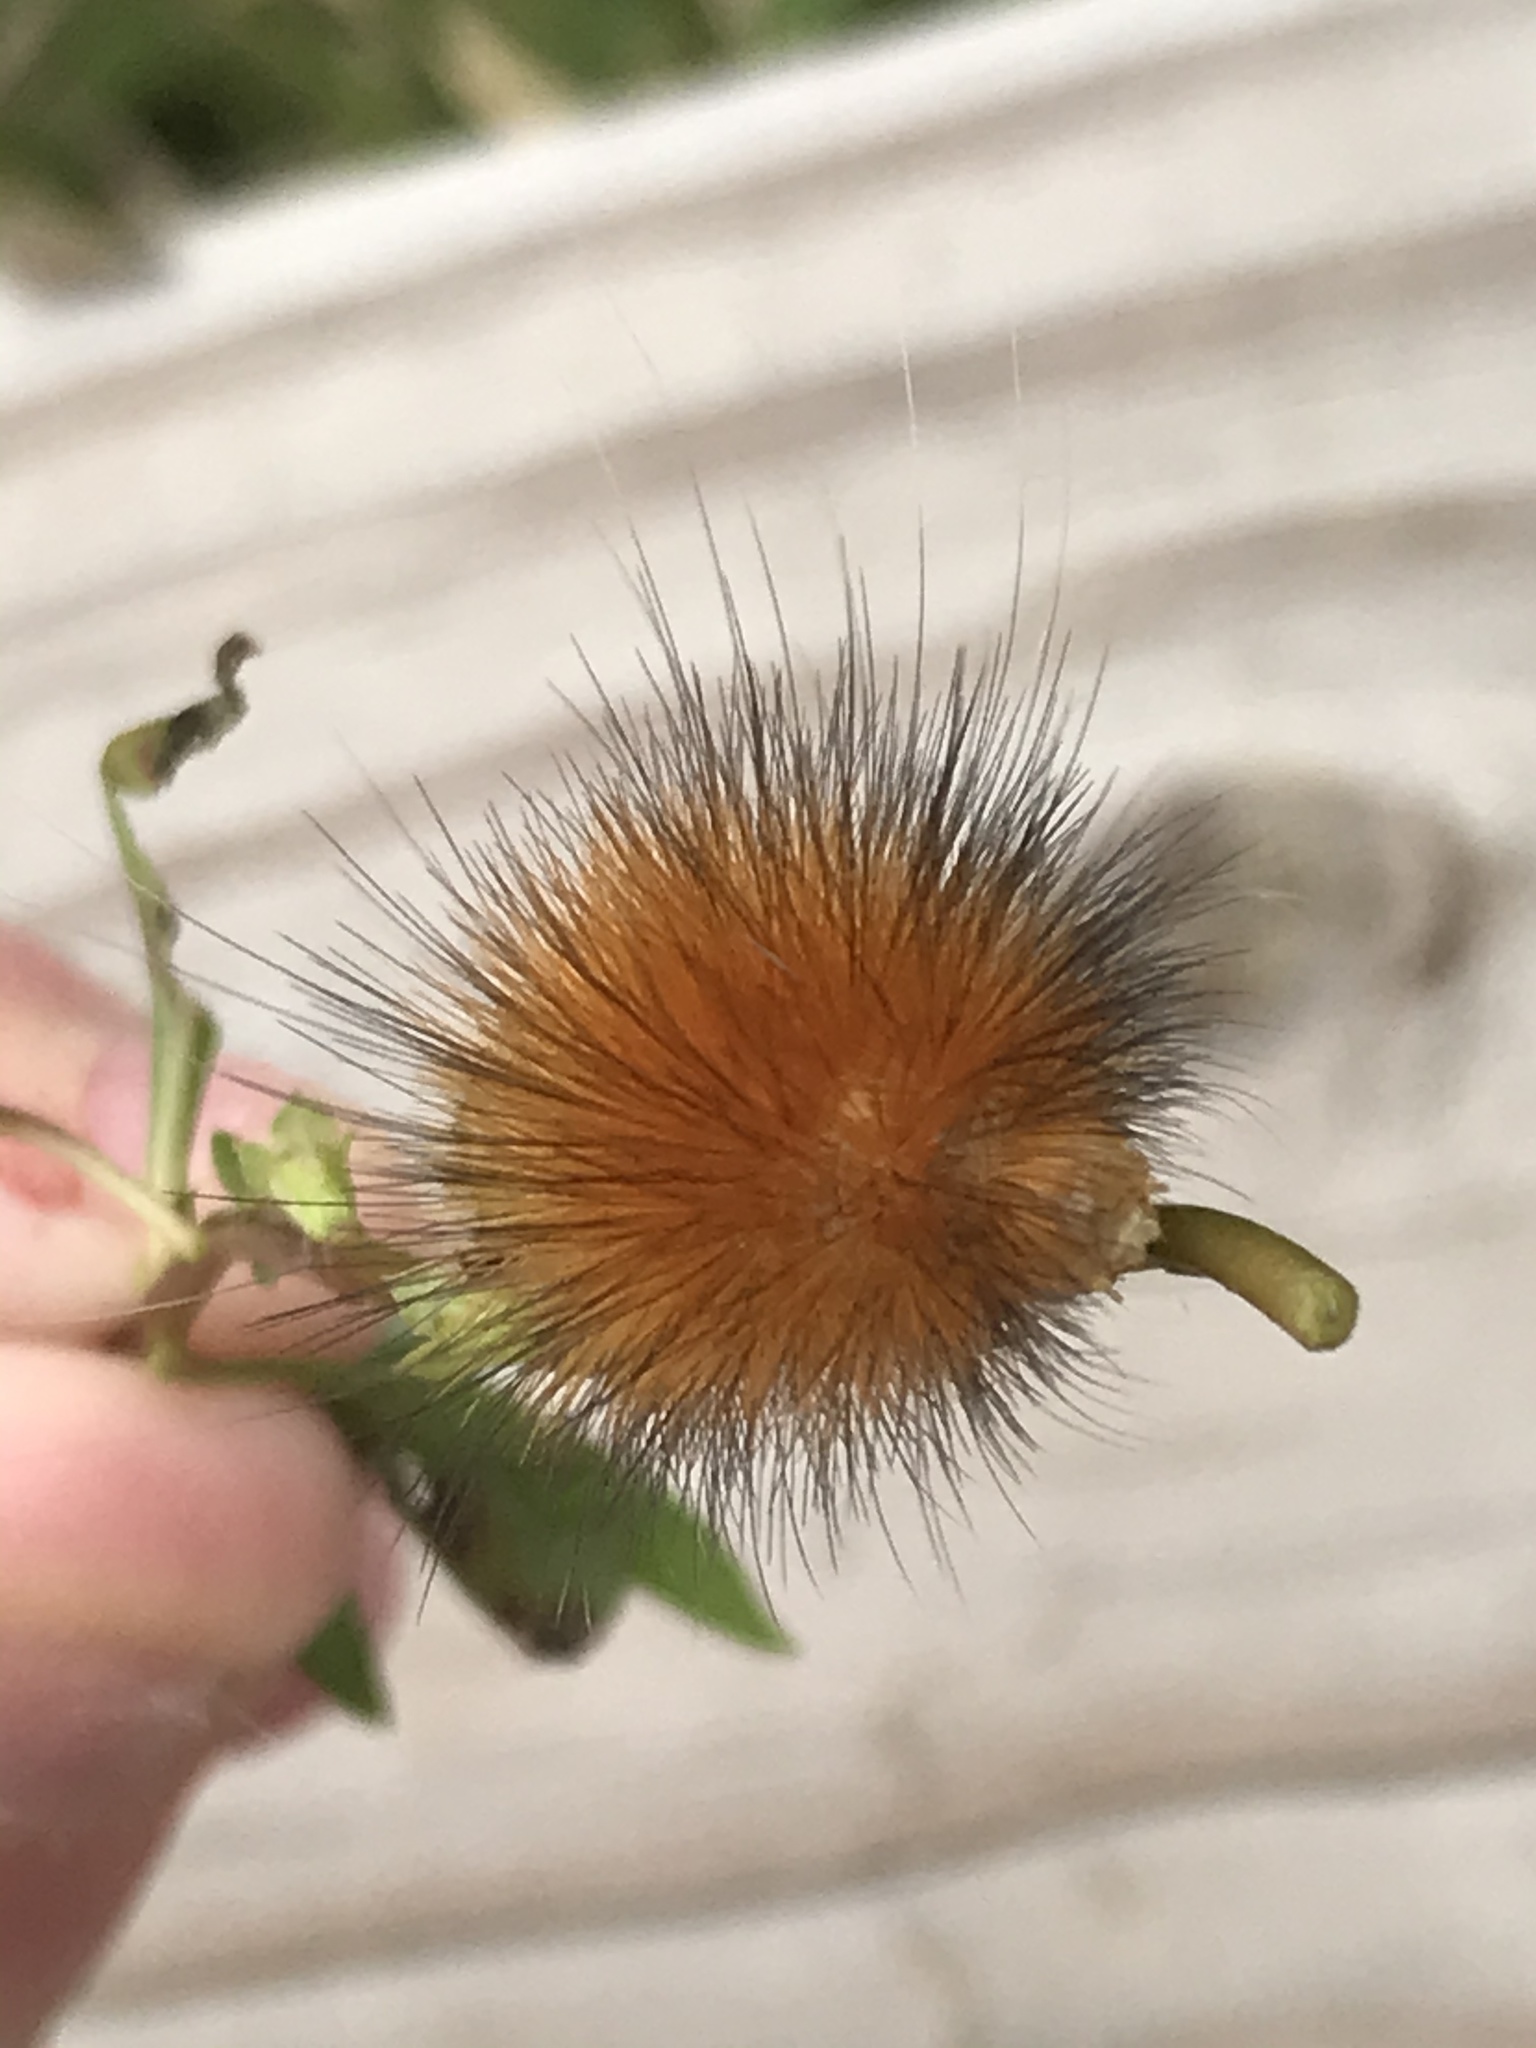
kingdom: Animalia
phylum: Arthropoda
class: Insecta
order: Lepidoptera
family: Erebidae
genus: Spilosoma
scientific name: Spilosoma virginica
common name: Virginia tiger moth
